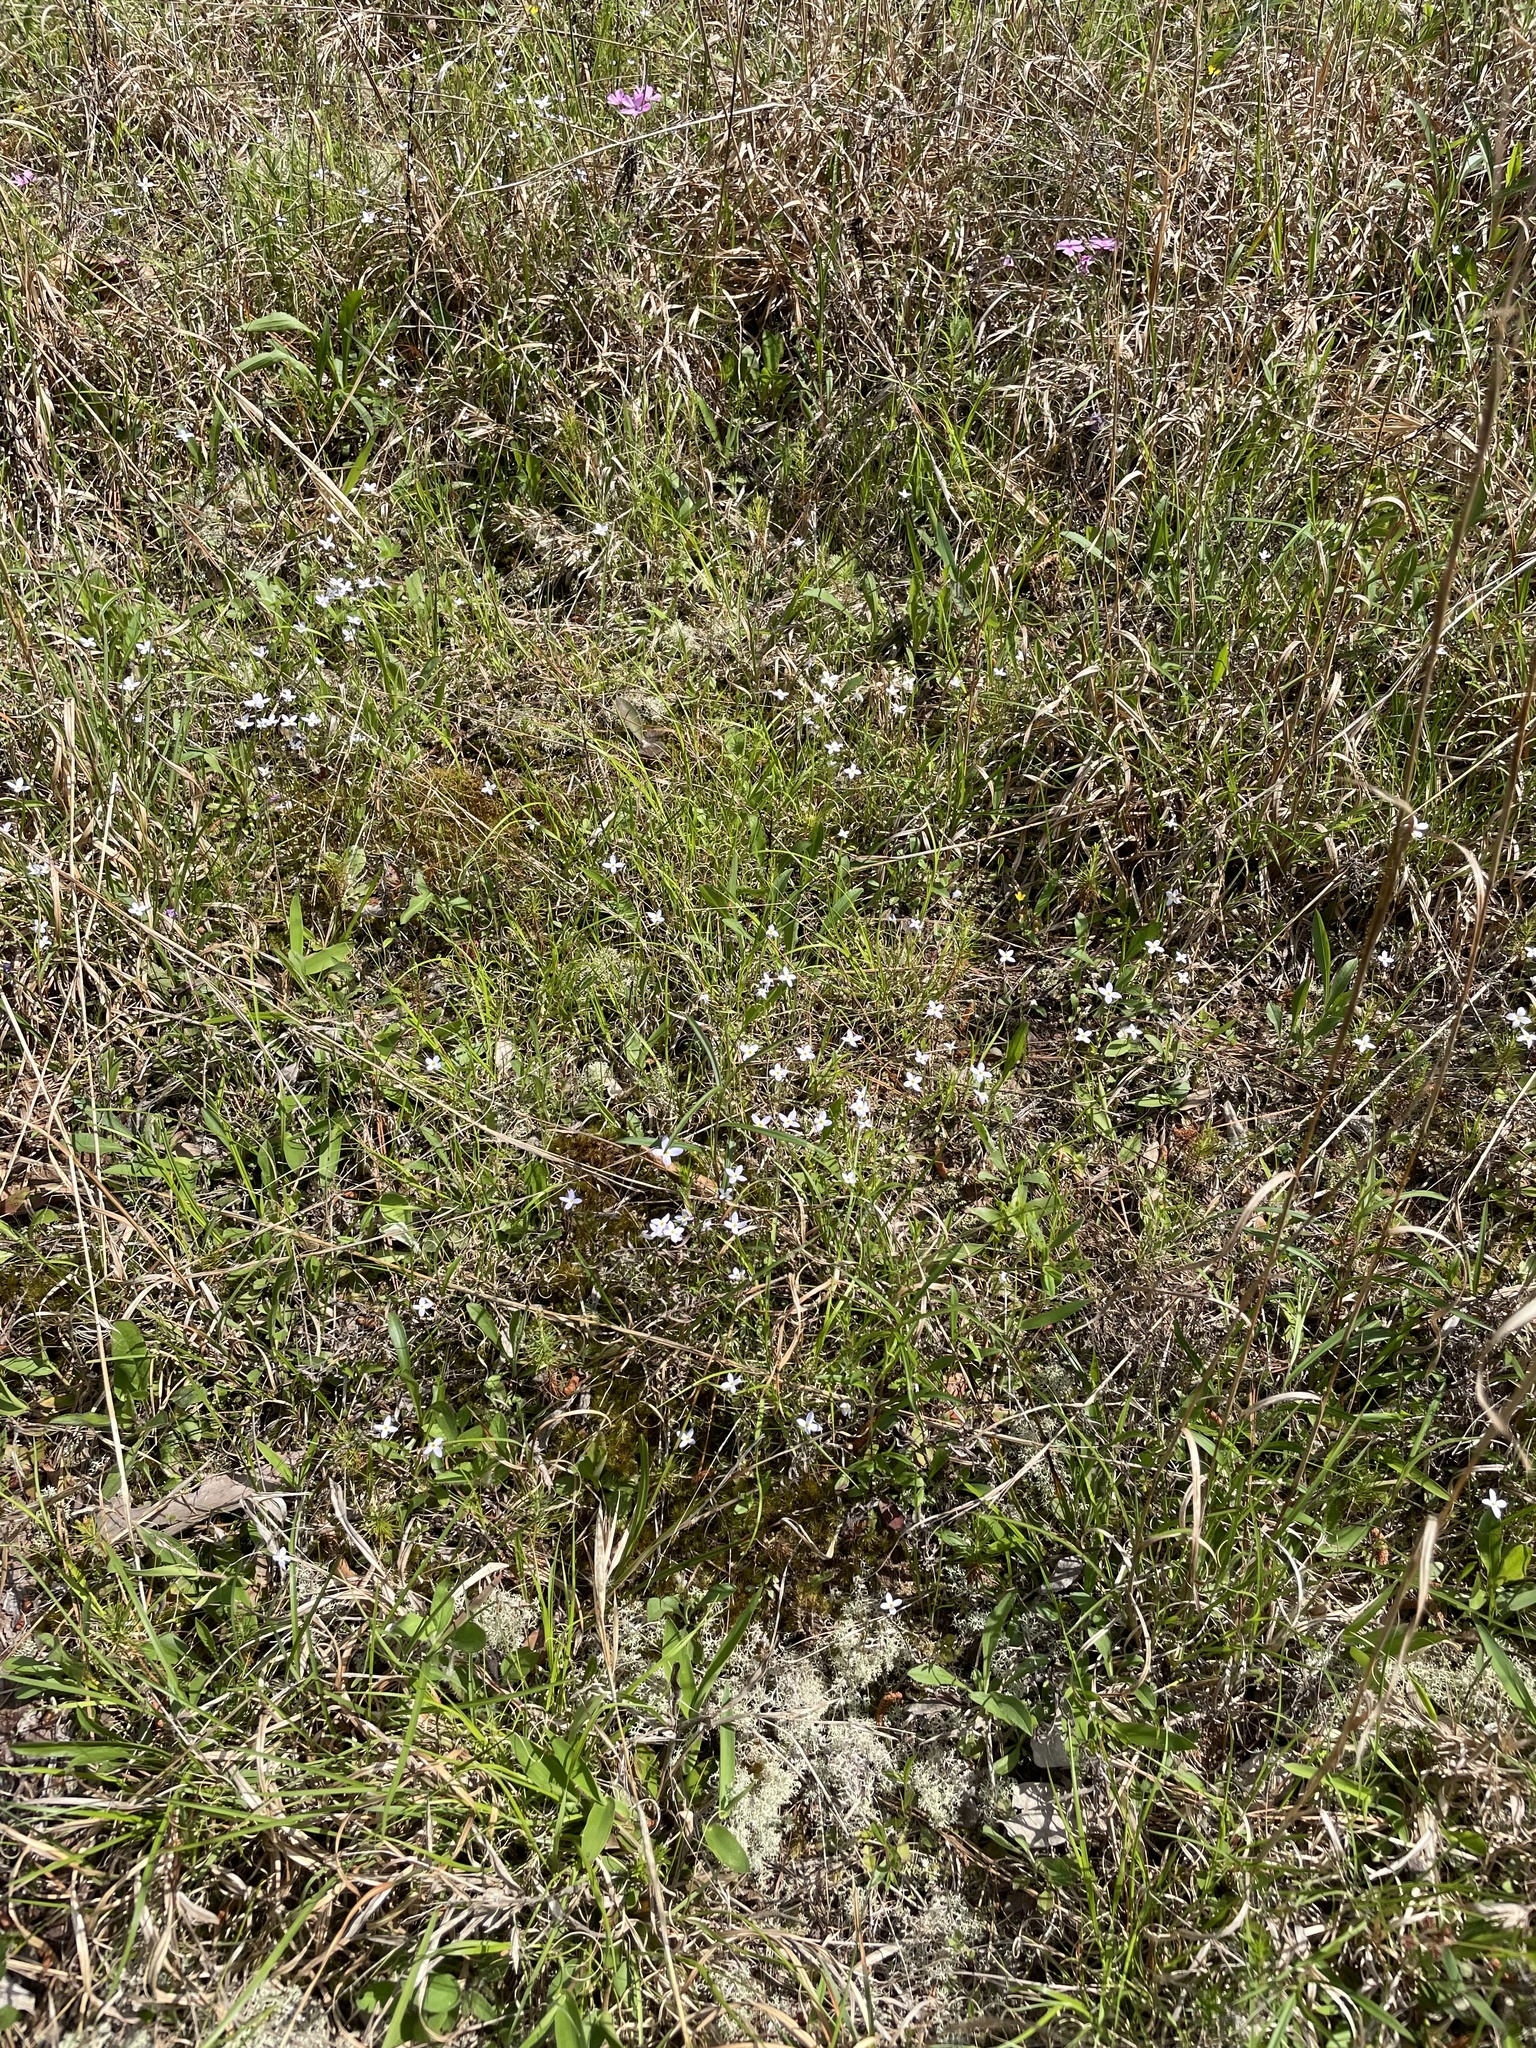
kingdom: Plantae
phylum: Tracheophyta
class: Magnoliopsida
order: Gentianales
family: Rubiaceae
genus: Houstonia
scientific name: Houstonia caerulea
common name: Bluets
